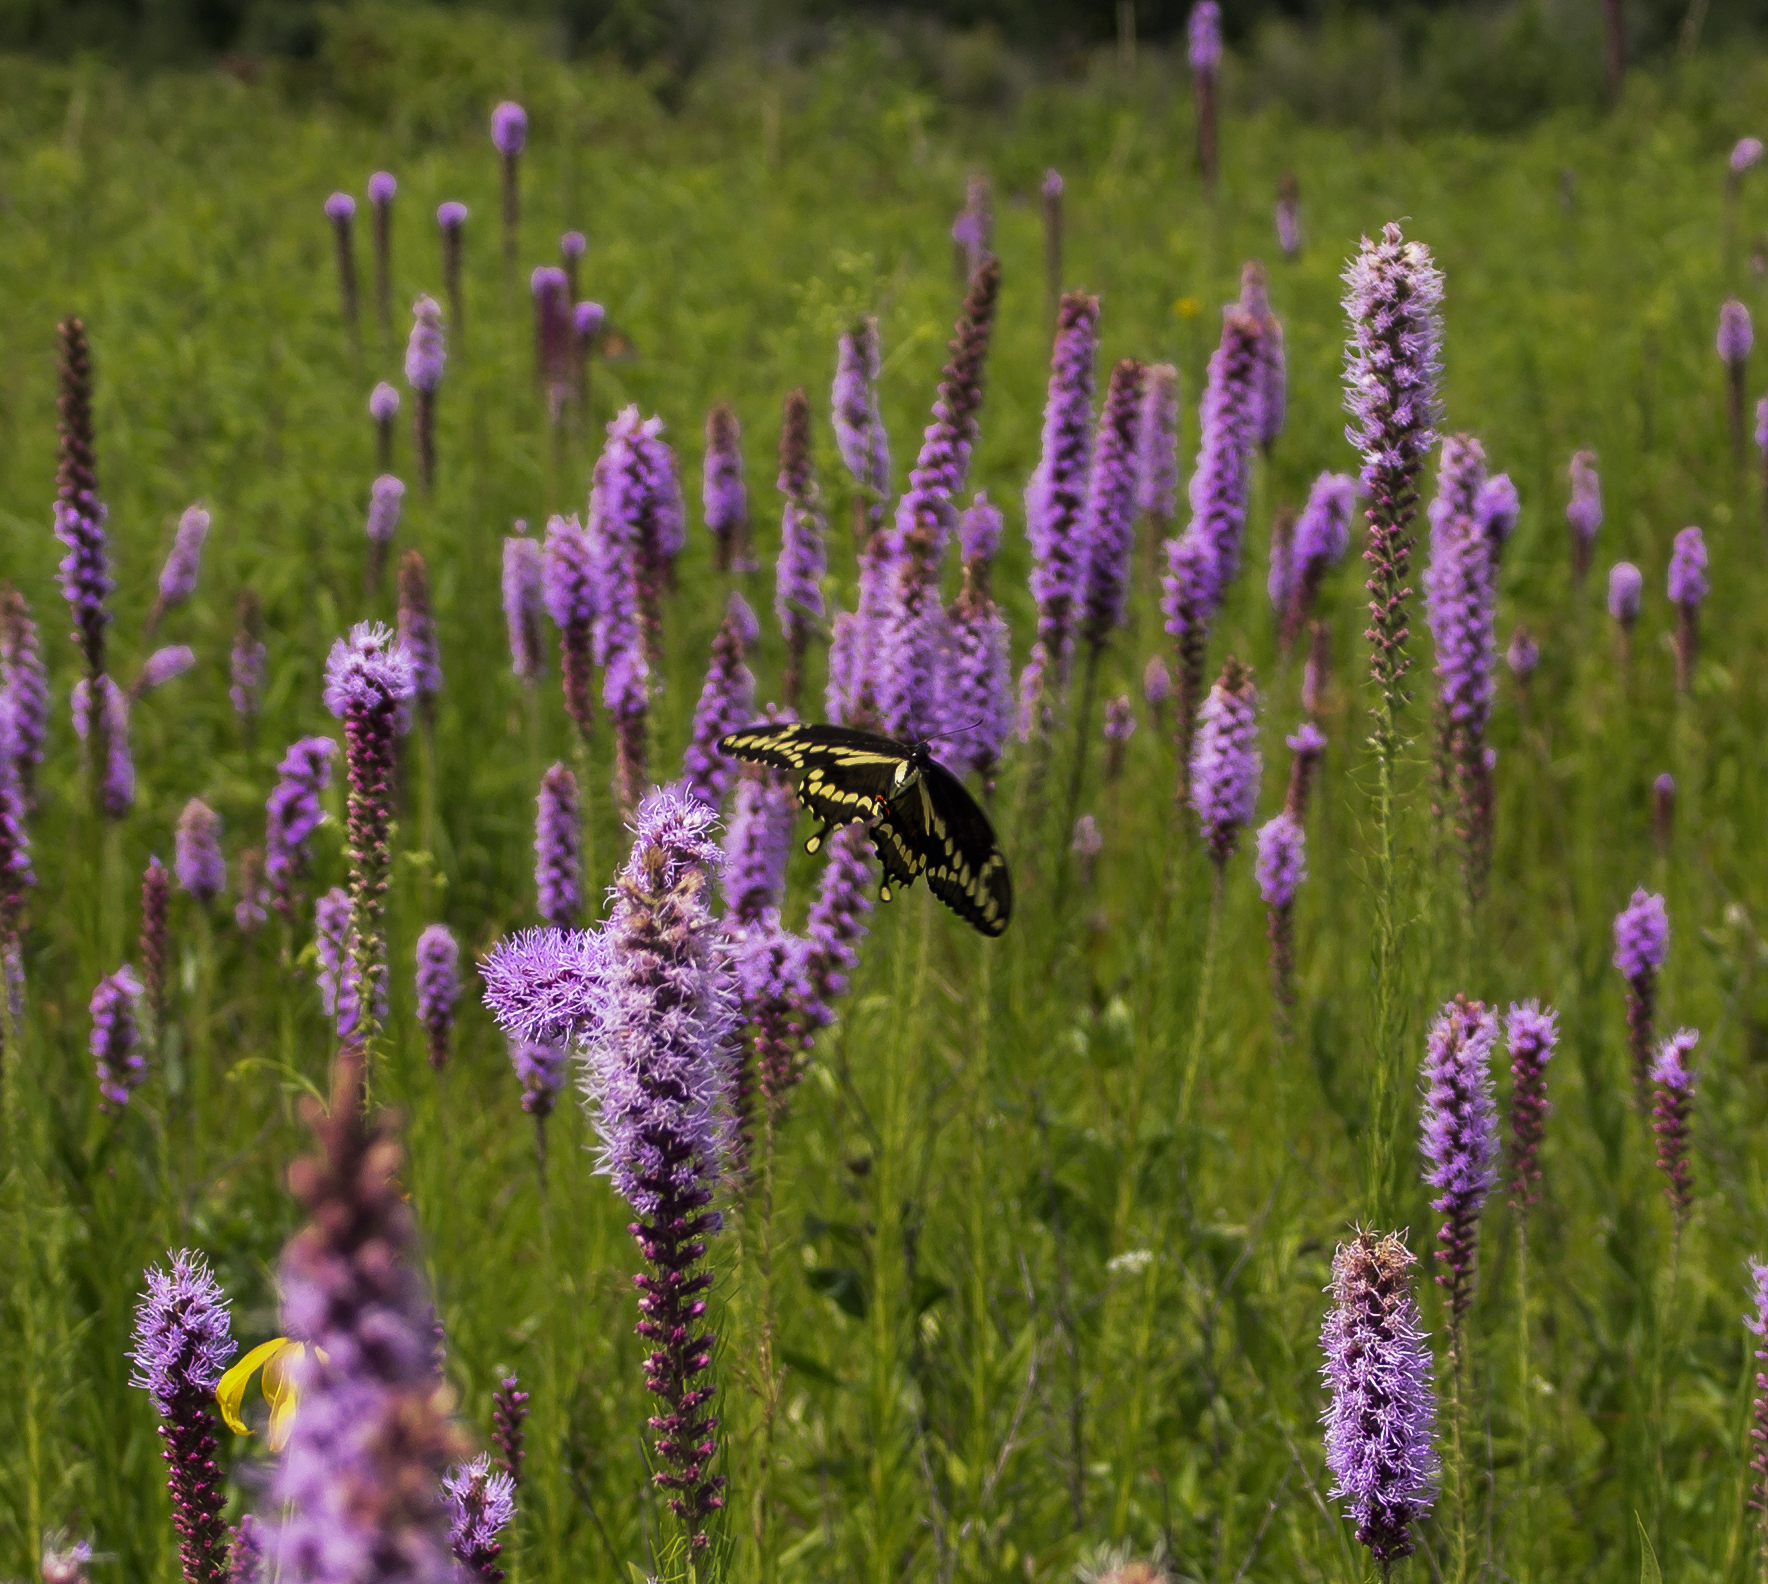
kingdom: Animalia
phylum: Arthropoda
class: Insecta
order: Lepidoptera
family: Papilionidae
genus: Papilio
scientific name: Papilio cresphontes
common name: Giant swallowtail
